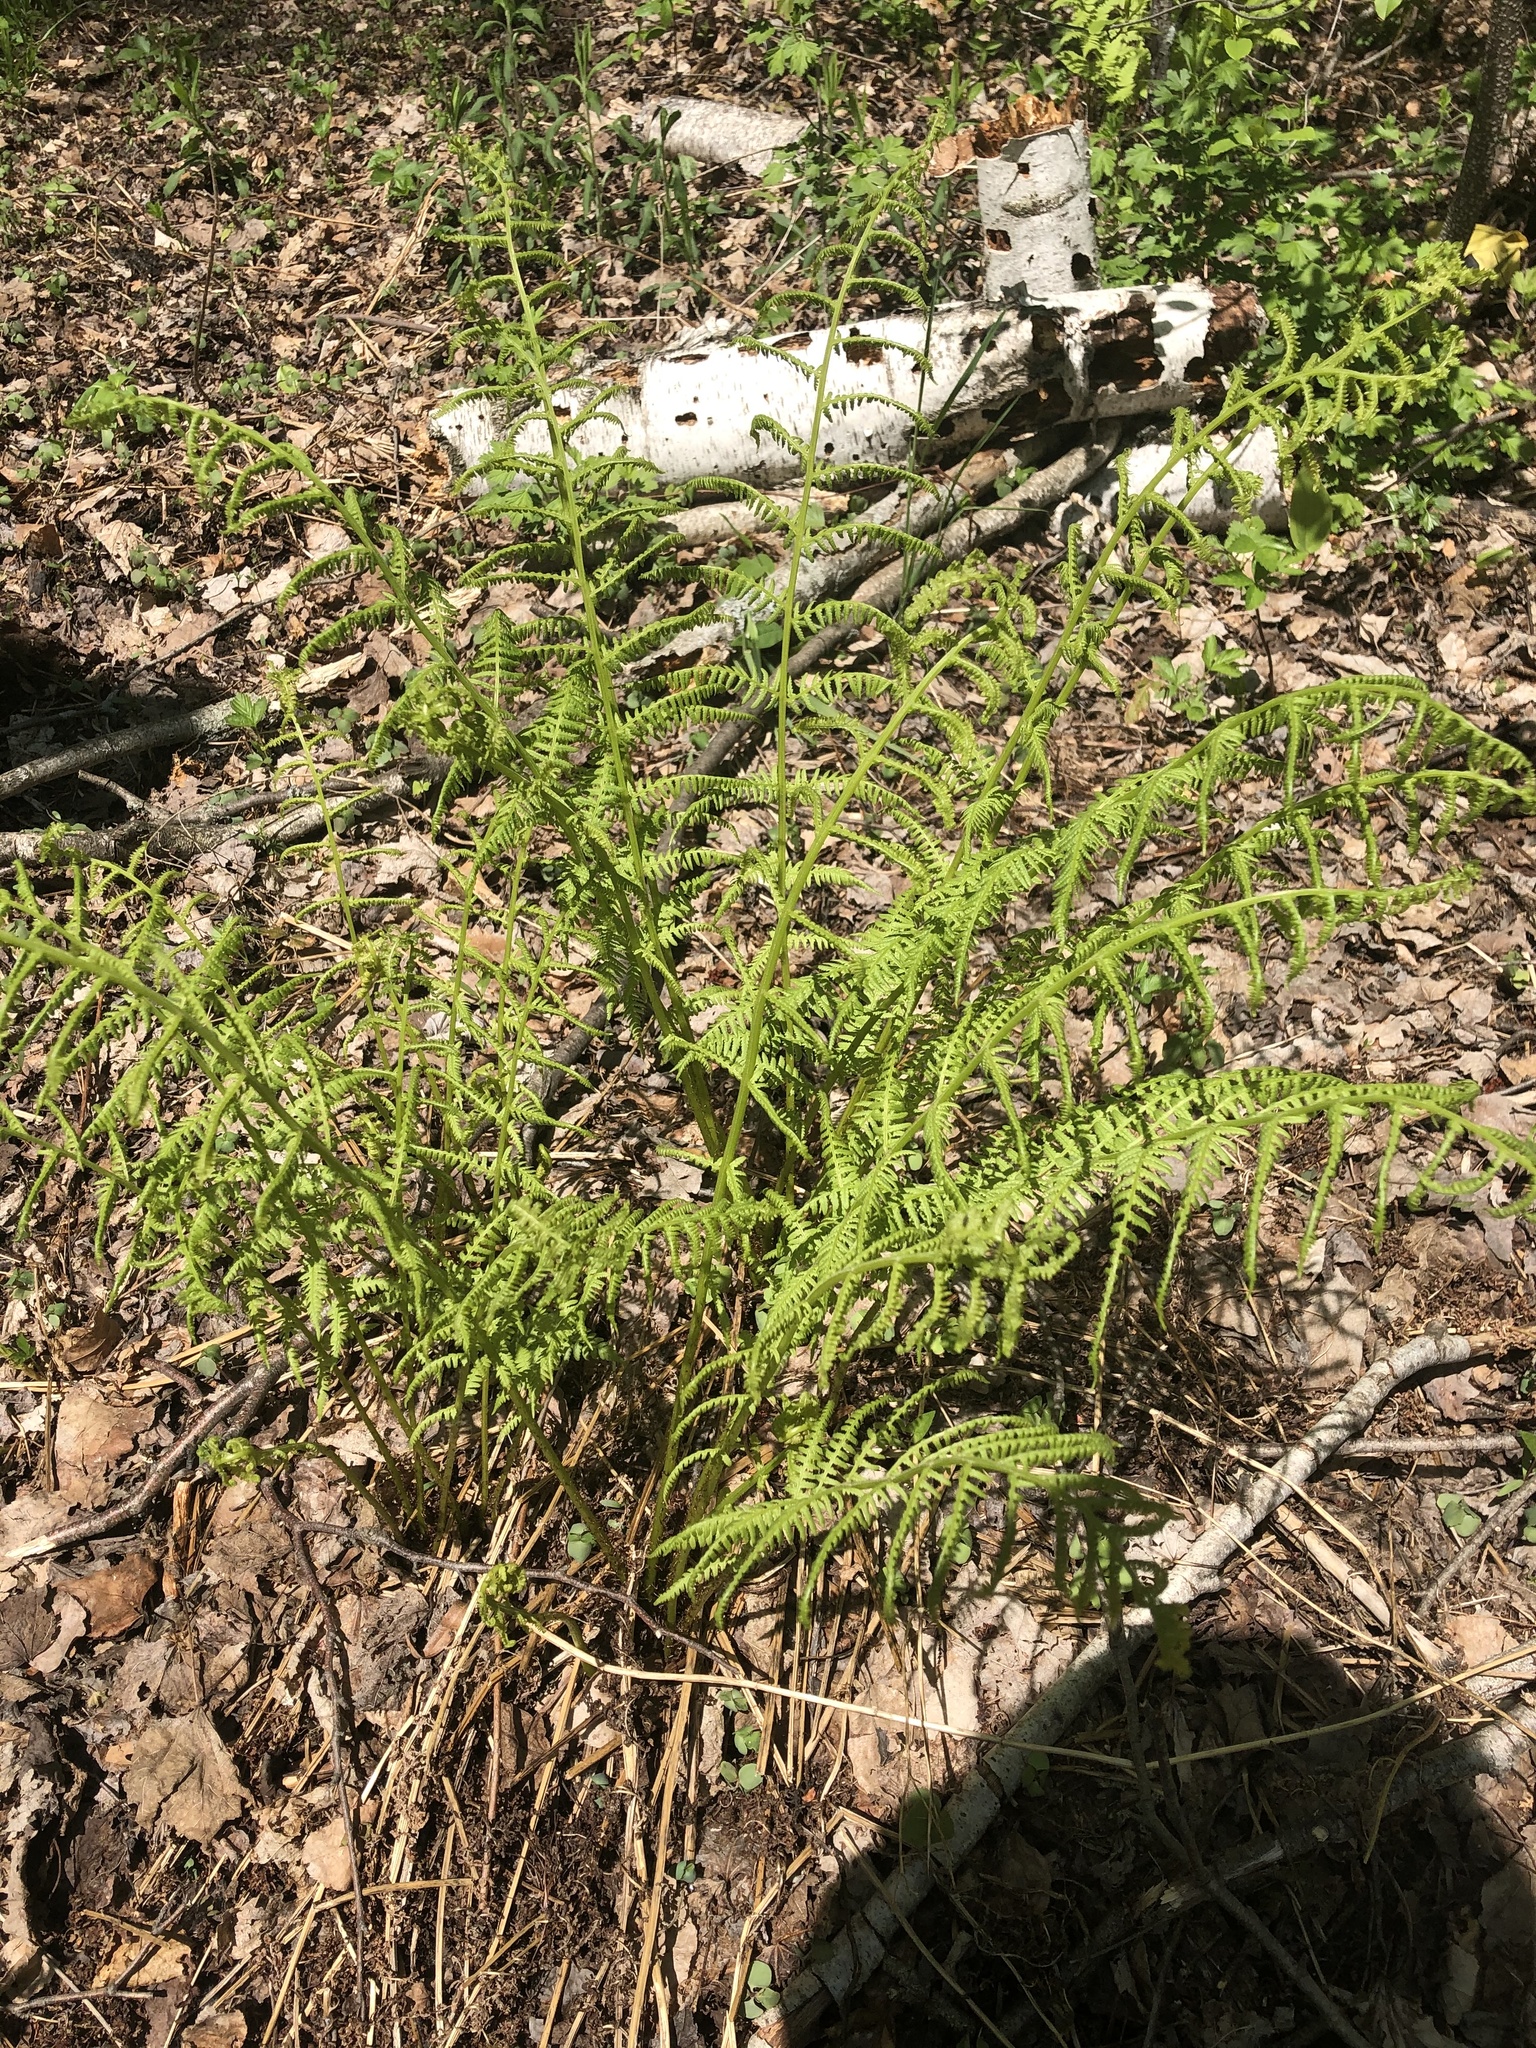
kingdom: Plantae
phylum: Tracheophyta
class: Polypodiopsida
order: Polypodiales
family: Athyriaceae
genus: Athyrium
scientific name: Athyrium angustum
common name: Northern lady fern
